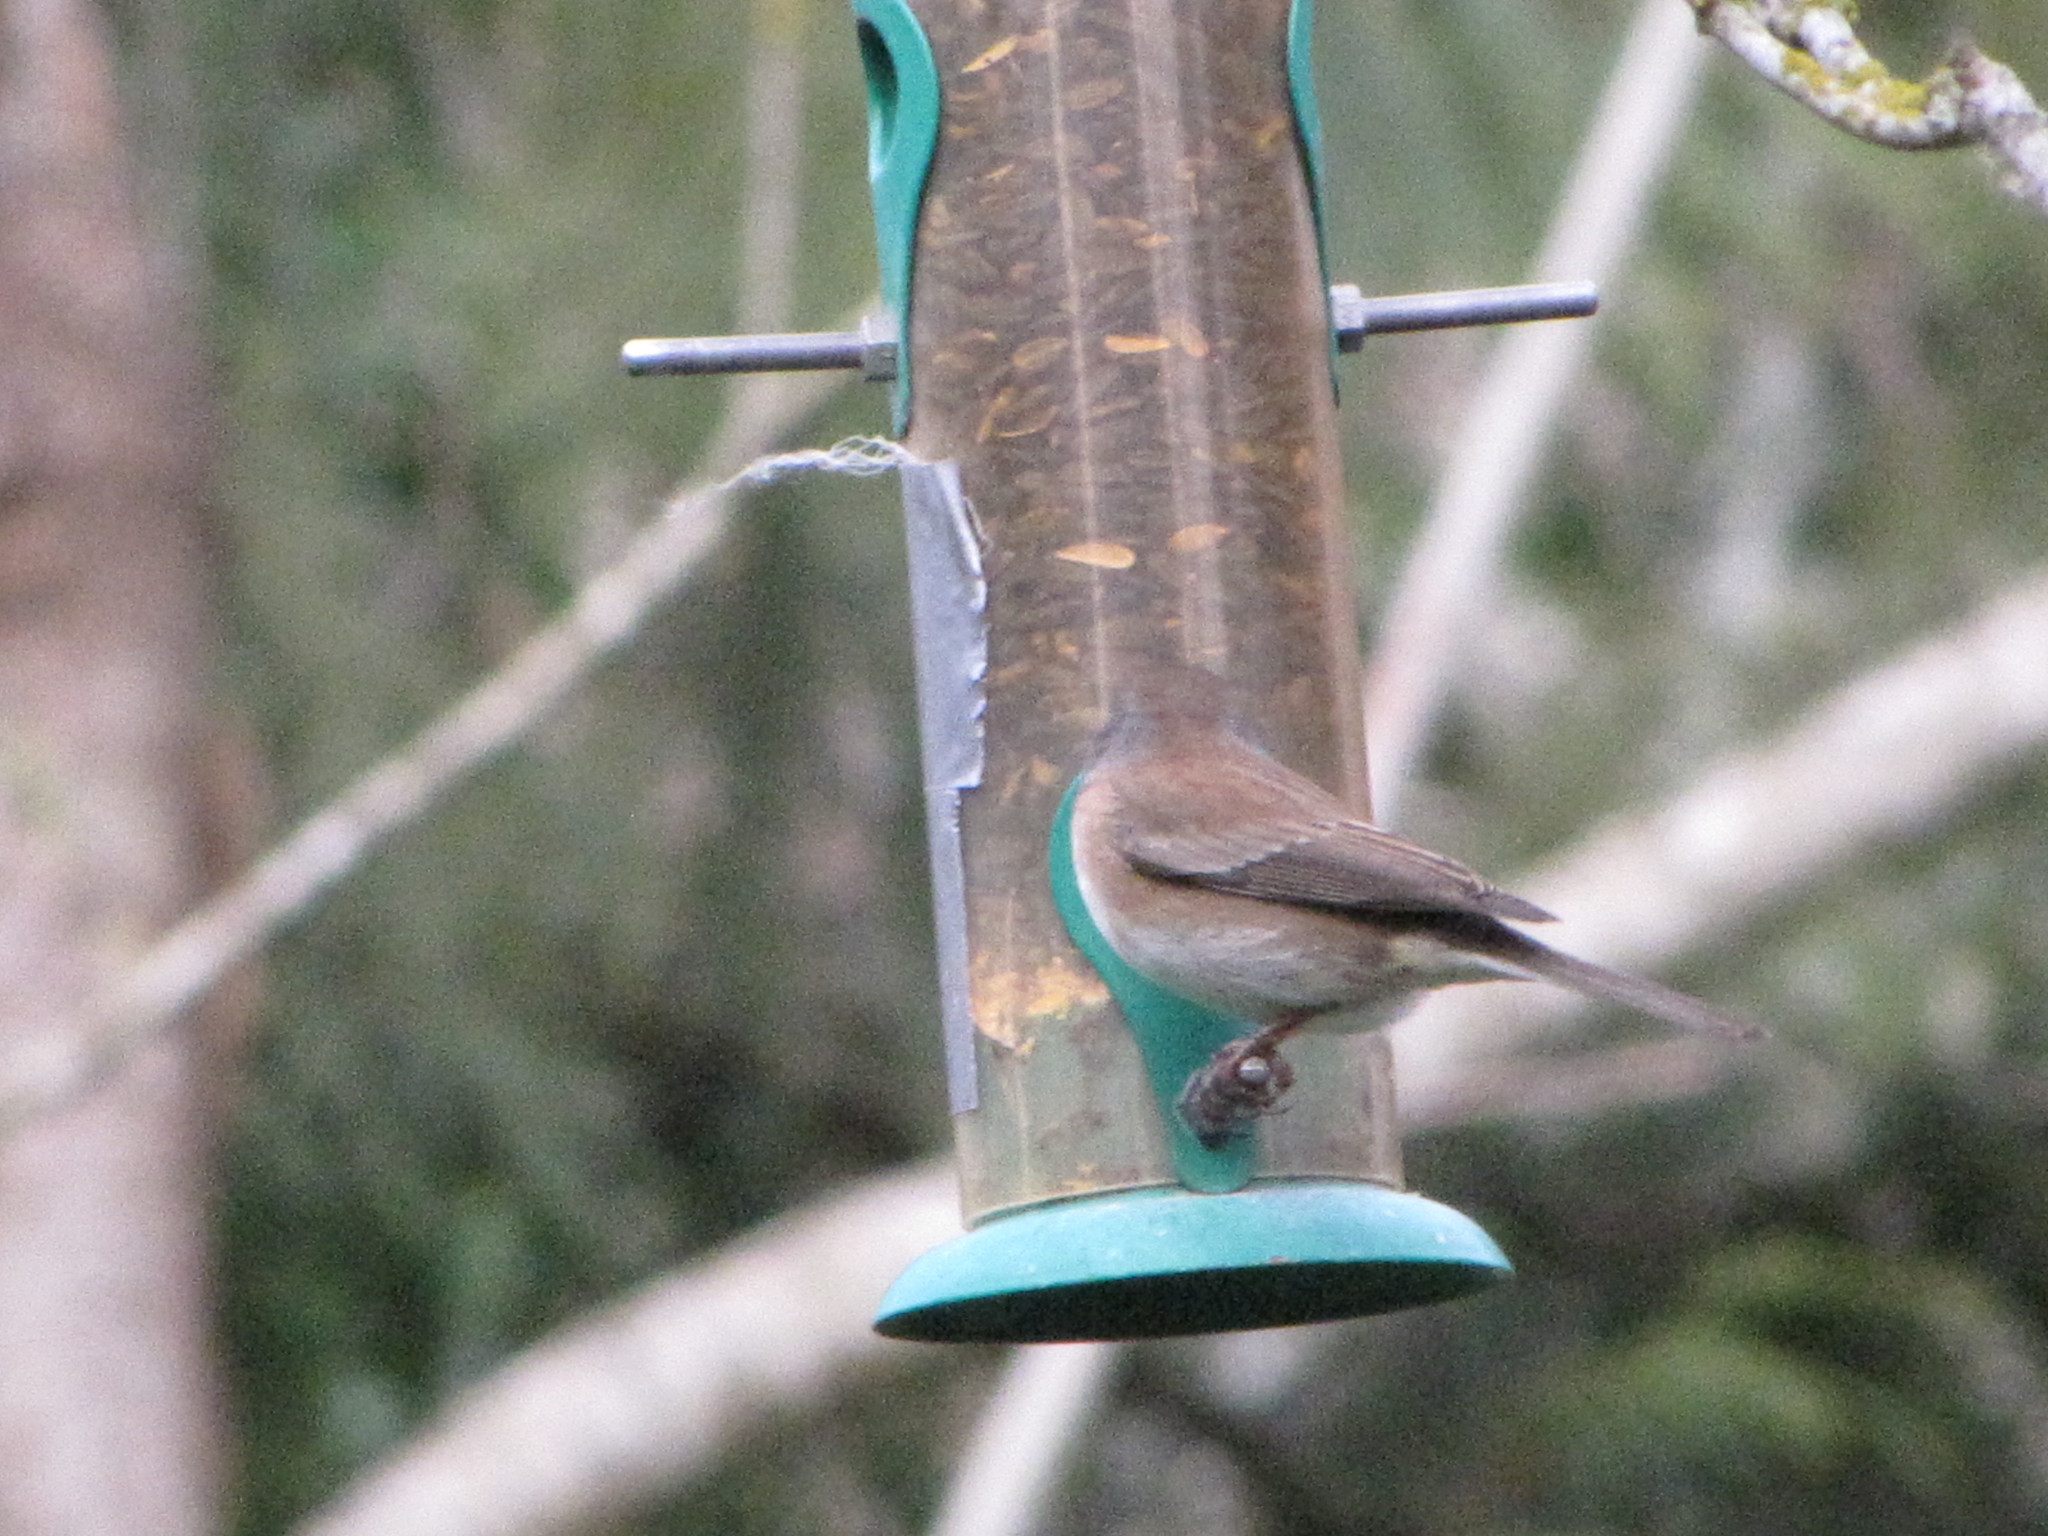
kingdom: Animalia
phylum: Chordata
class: Aves
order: Passeriformes
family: Passerellidae
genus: Junco
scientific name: Junco hyemalis
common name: Dark-eyed junco
